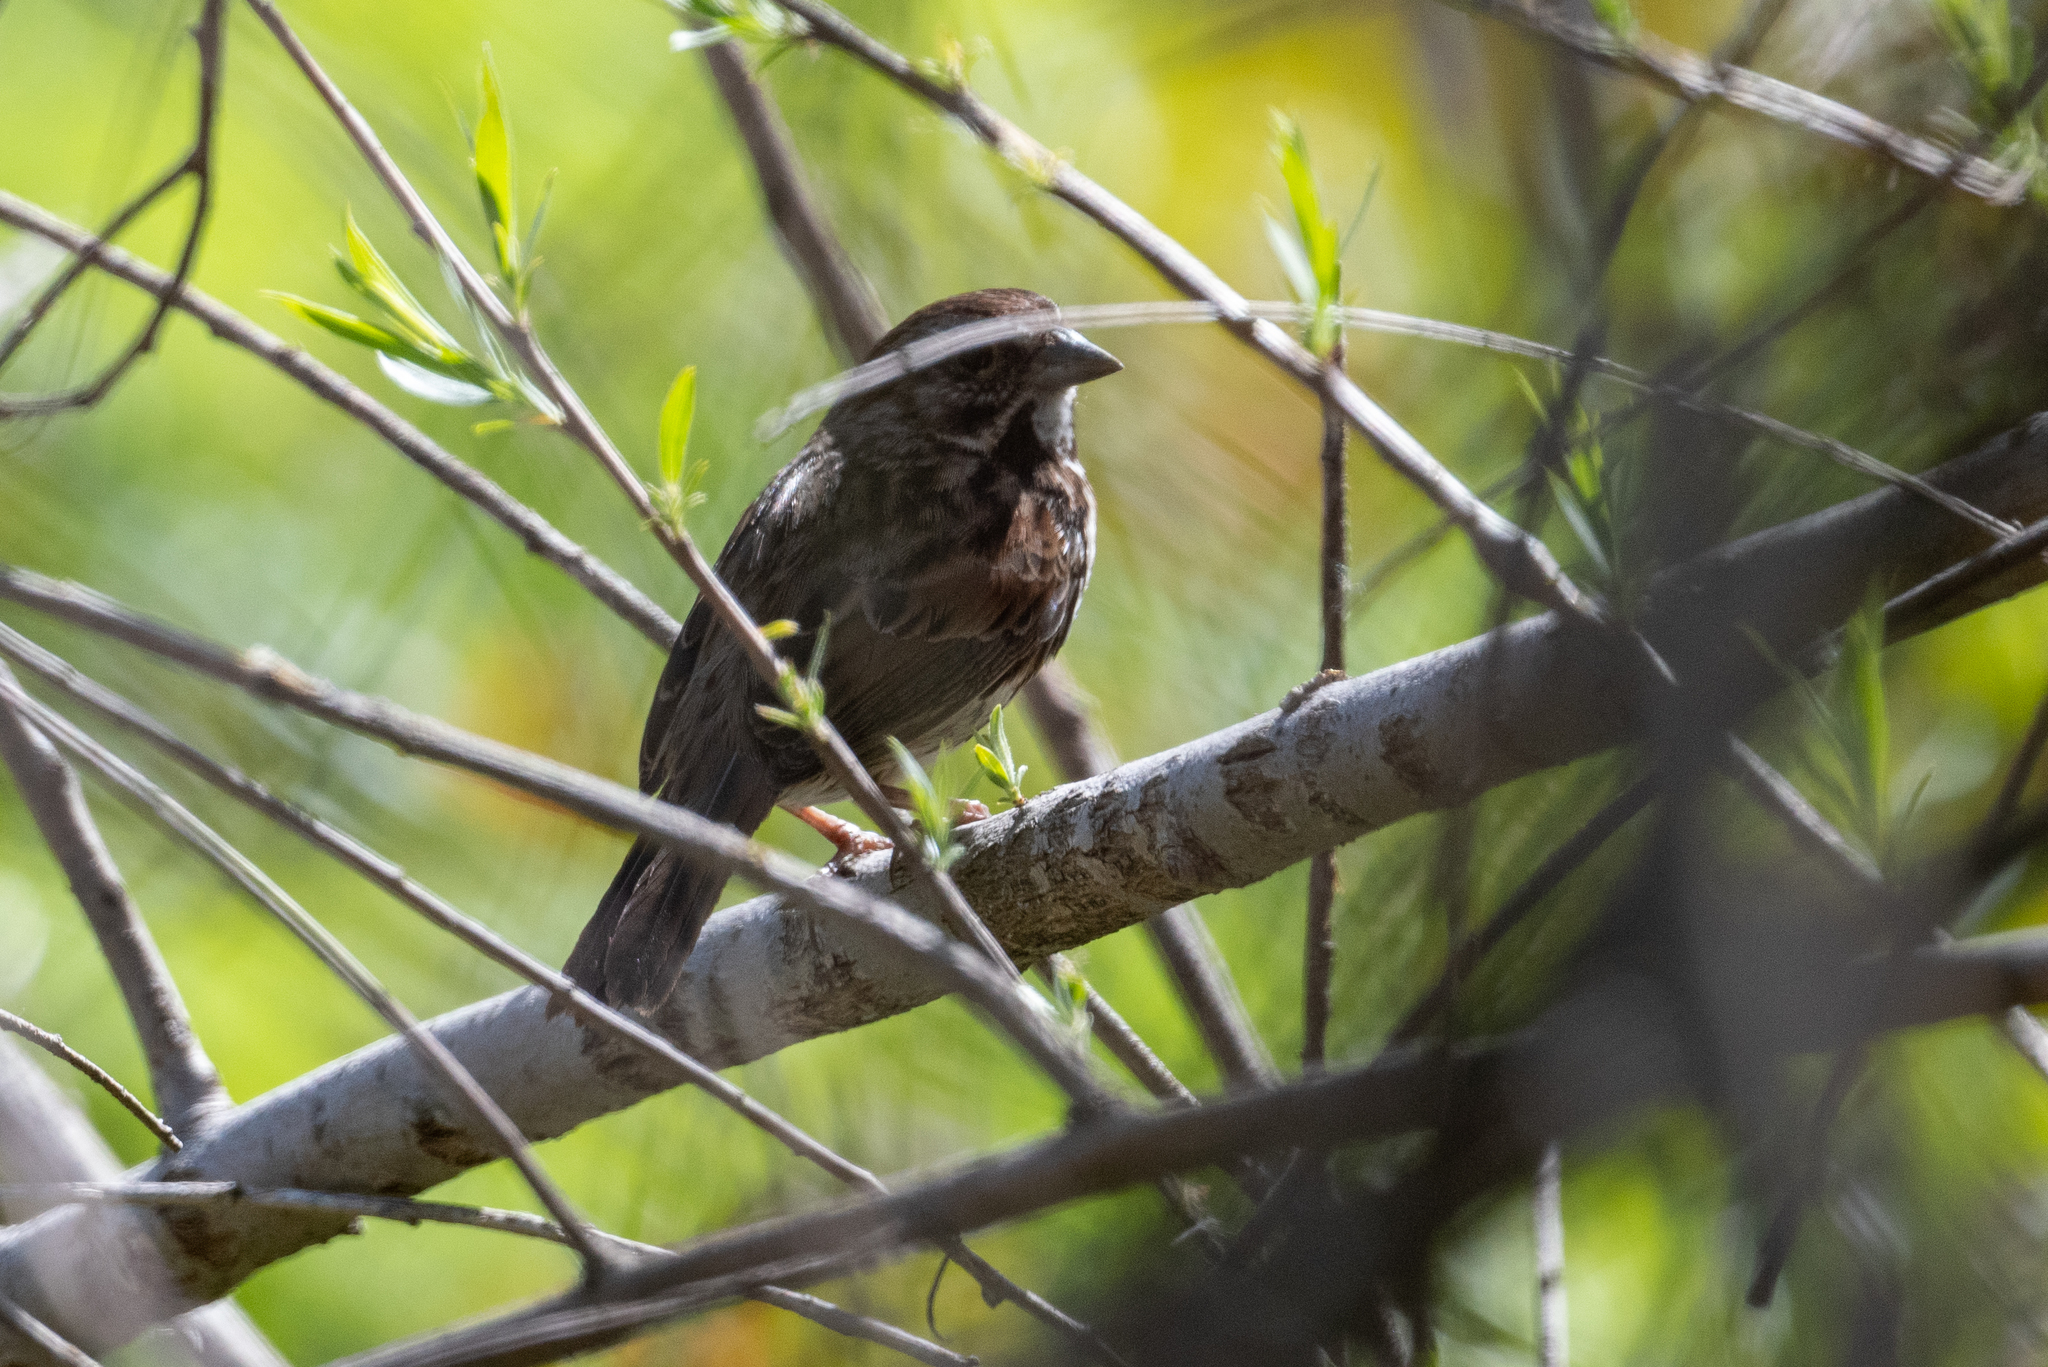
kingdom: Animalia
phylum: Chordata
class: Aves
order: Passeriformes
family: Passerellidae
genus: Melospiza
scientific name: Melospiza melodia
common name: Song sparrow
